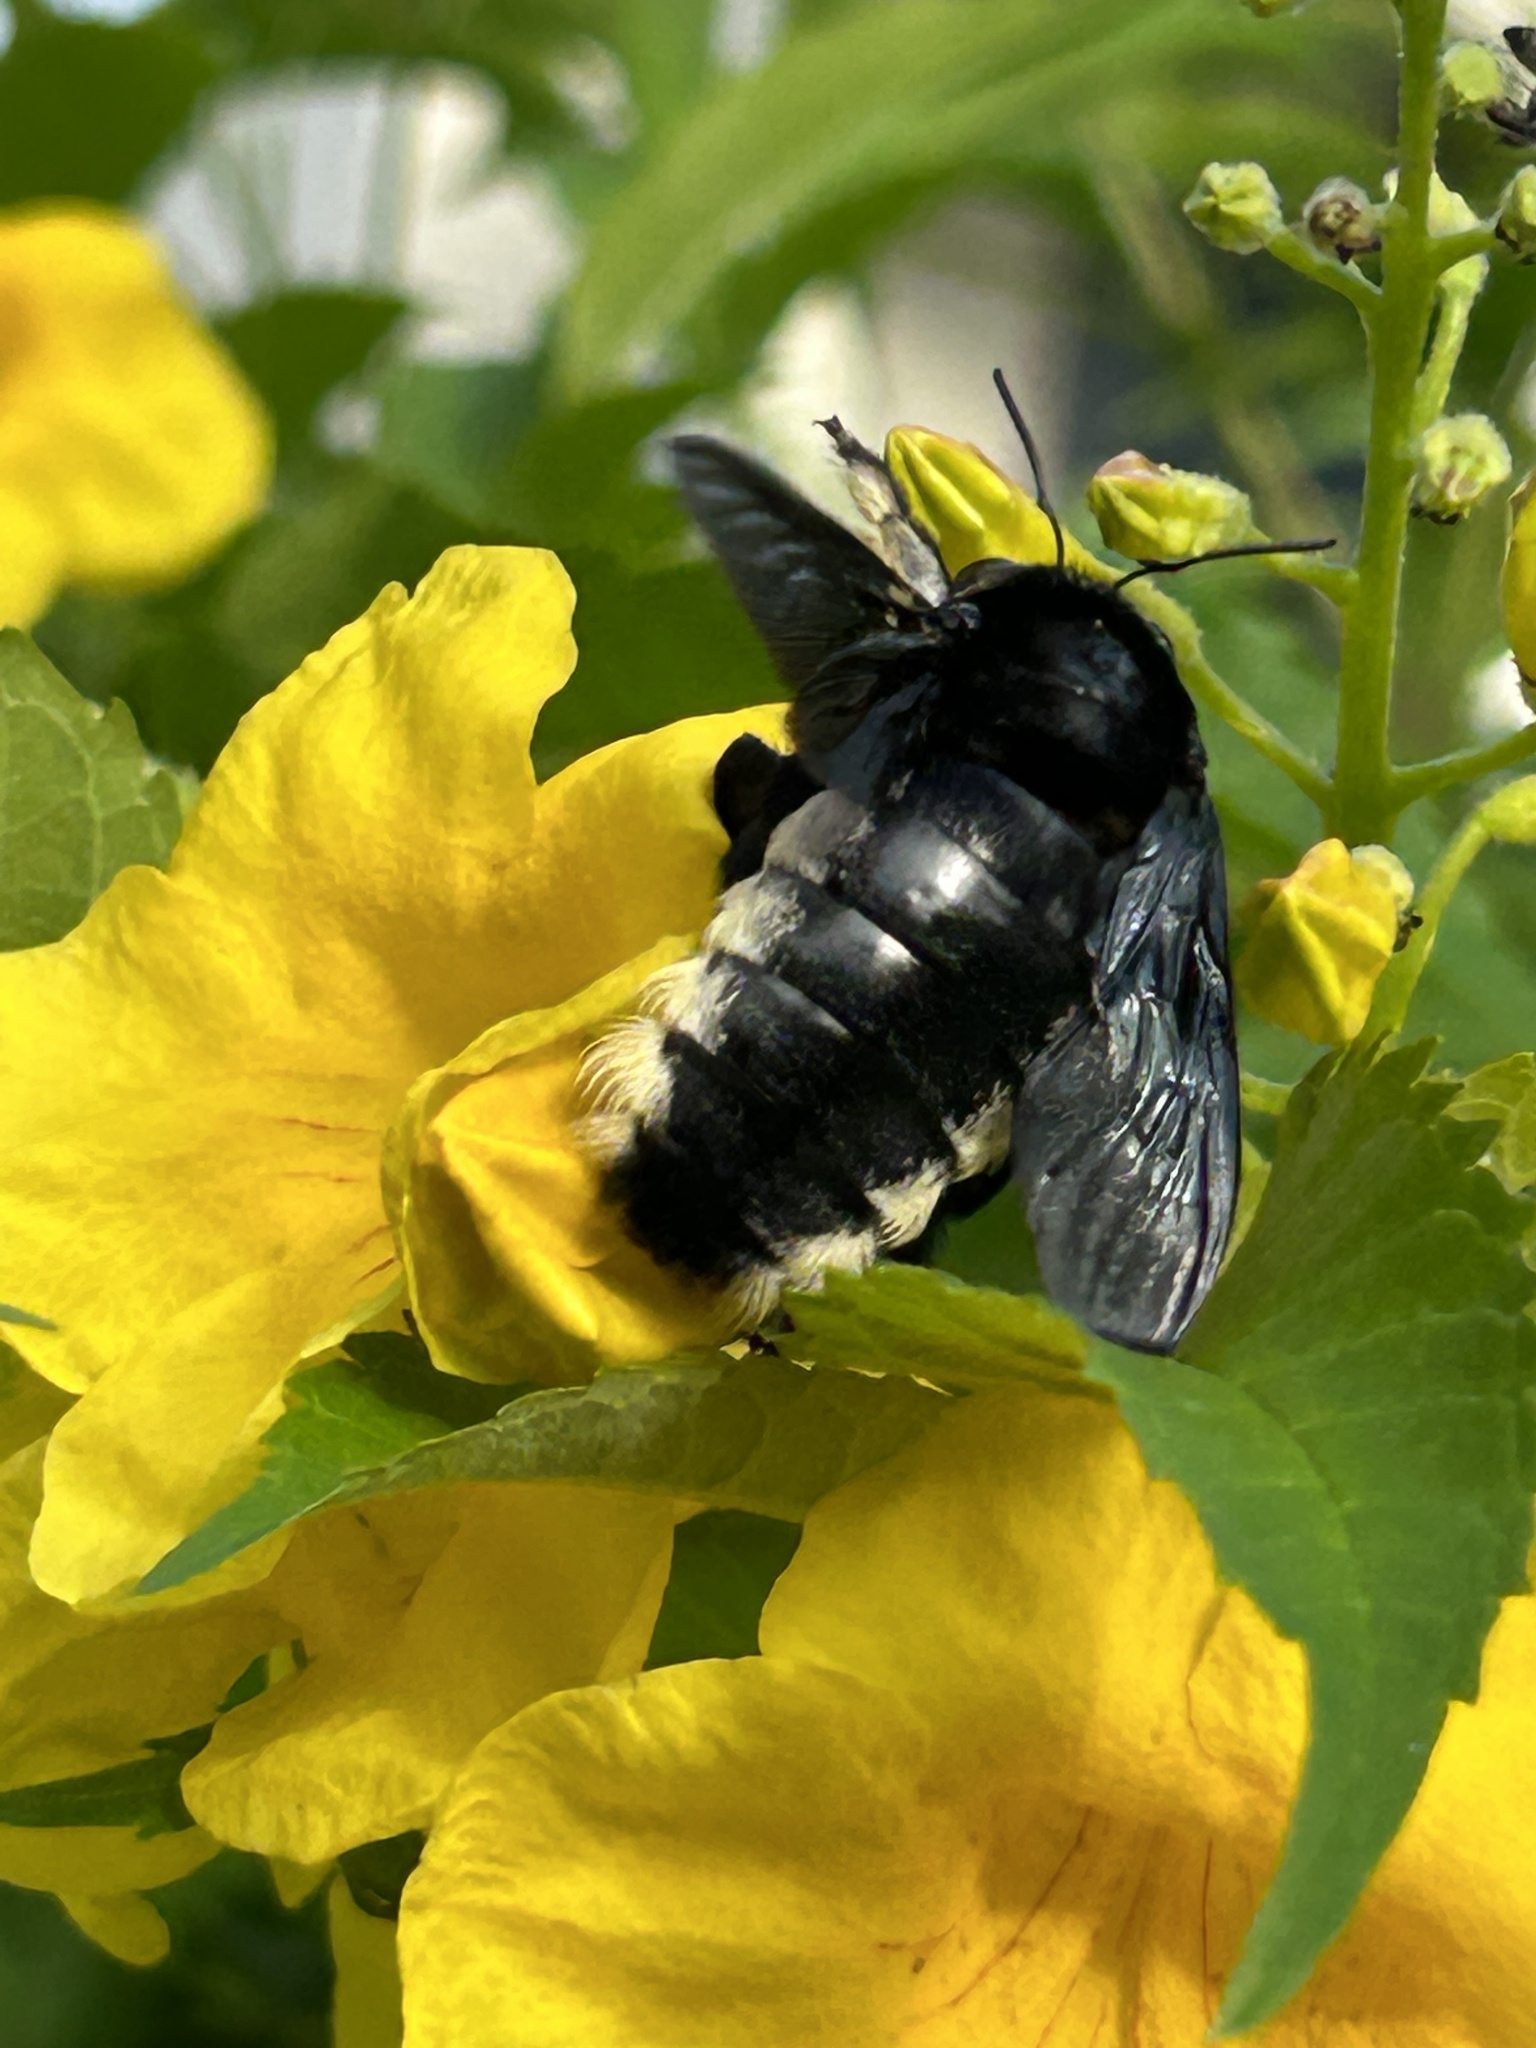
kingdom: Animalia
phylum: Arthropoda
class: Insecta
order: Hymenoptera
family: Apidae
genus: Xylocopa
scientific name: Xylocopa nigrita
